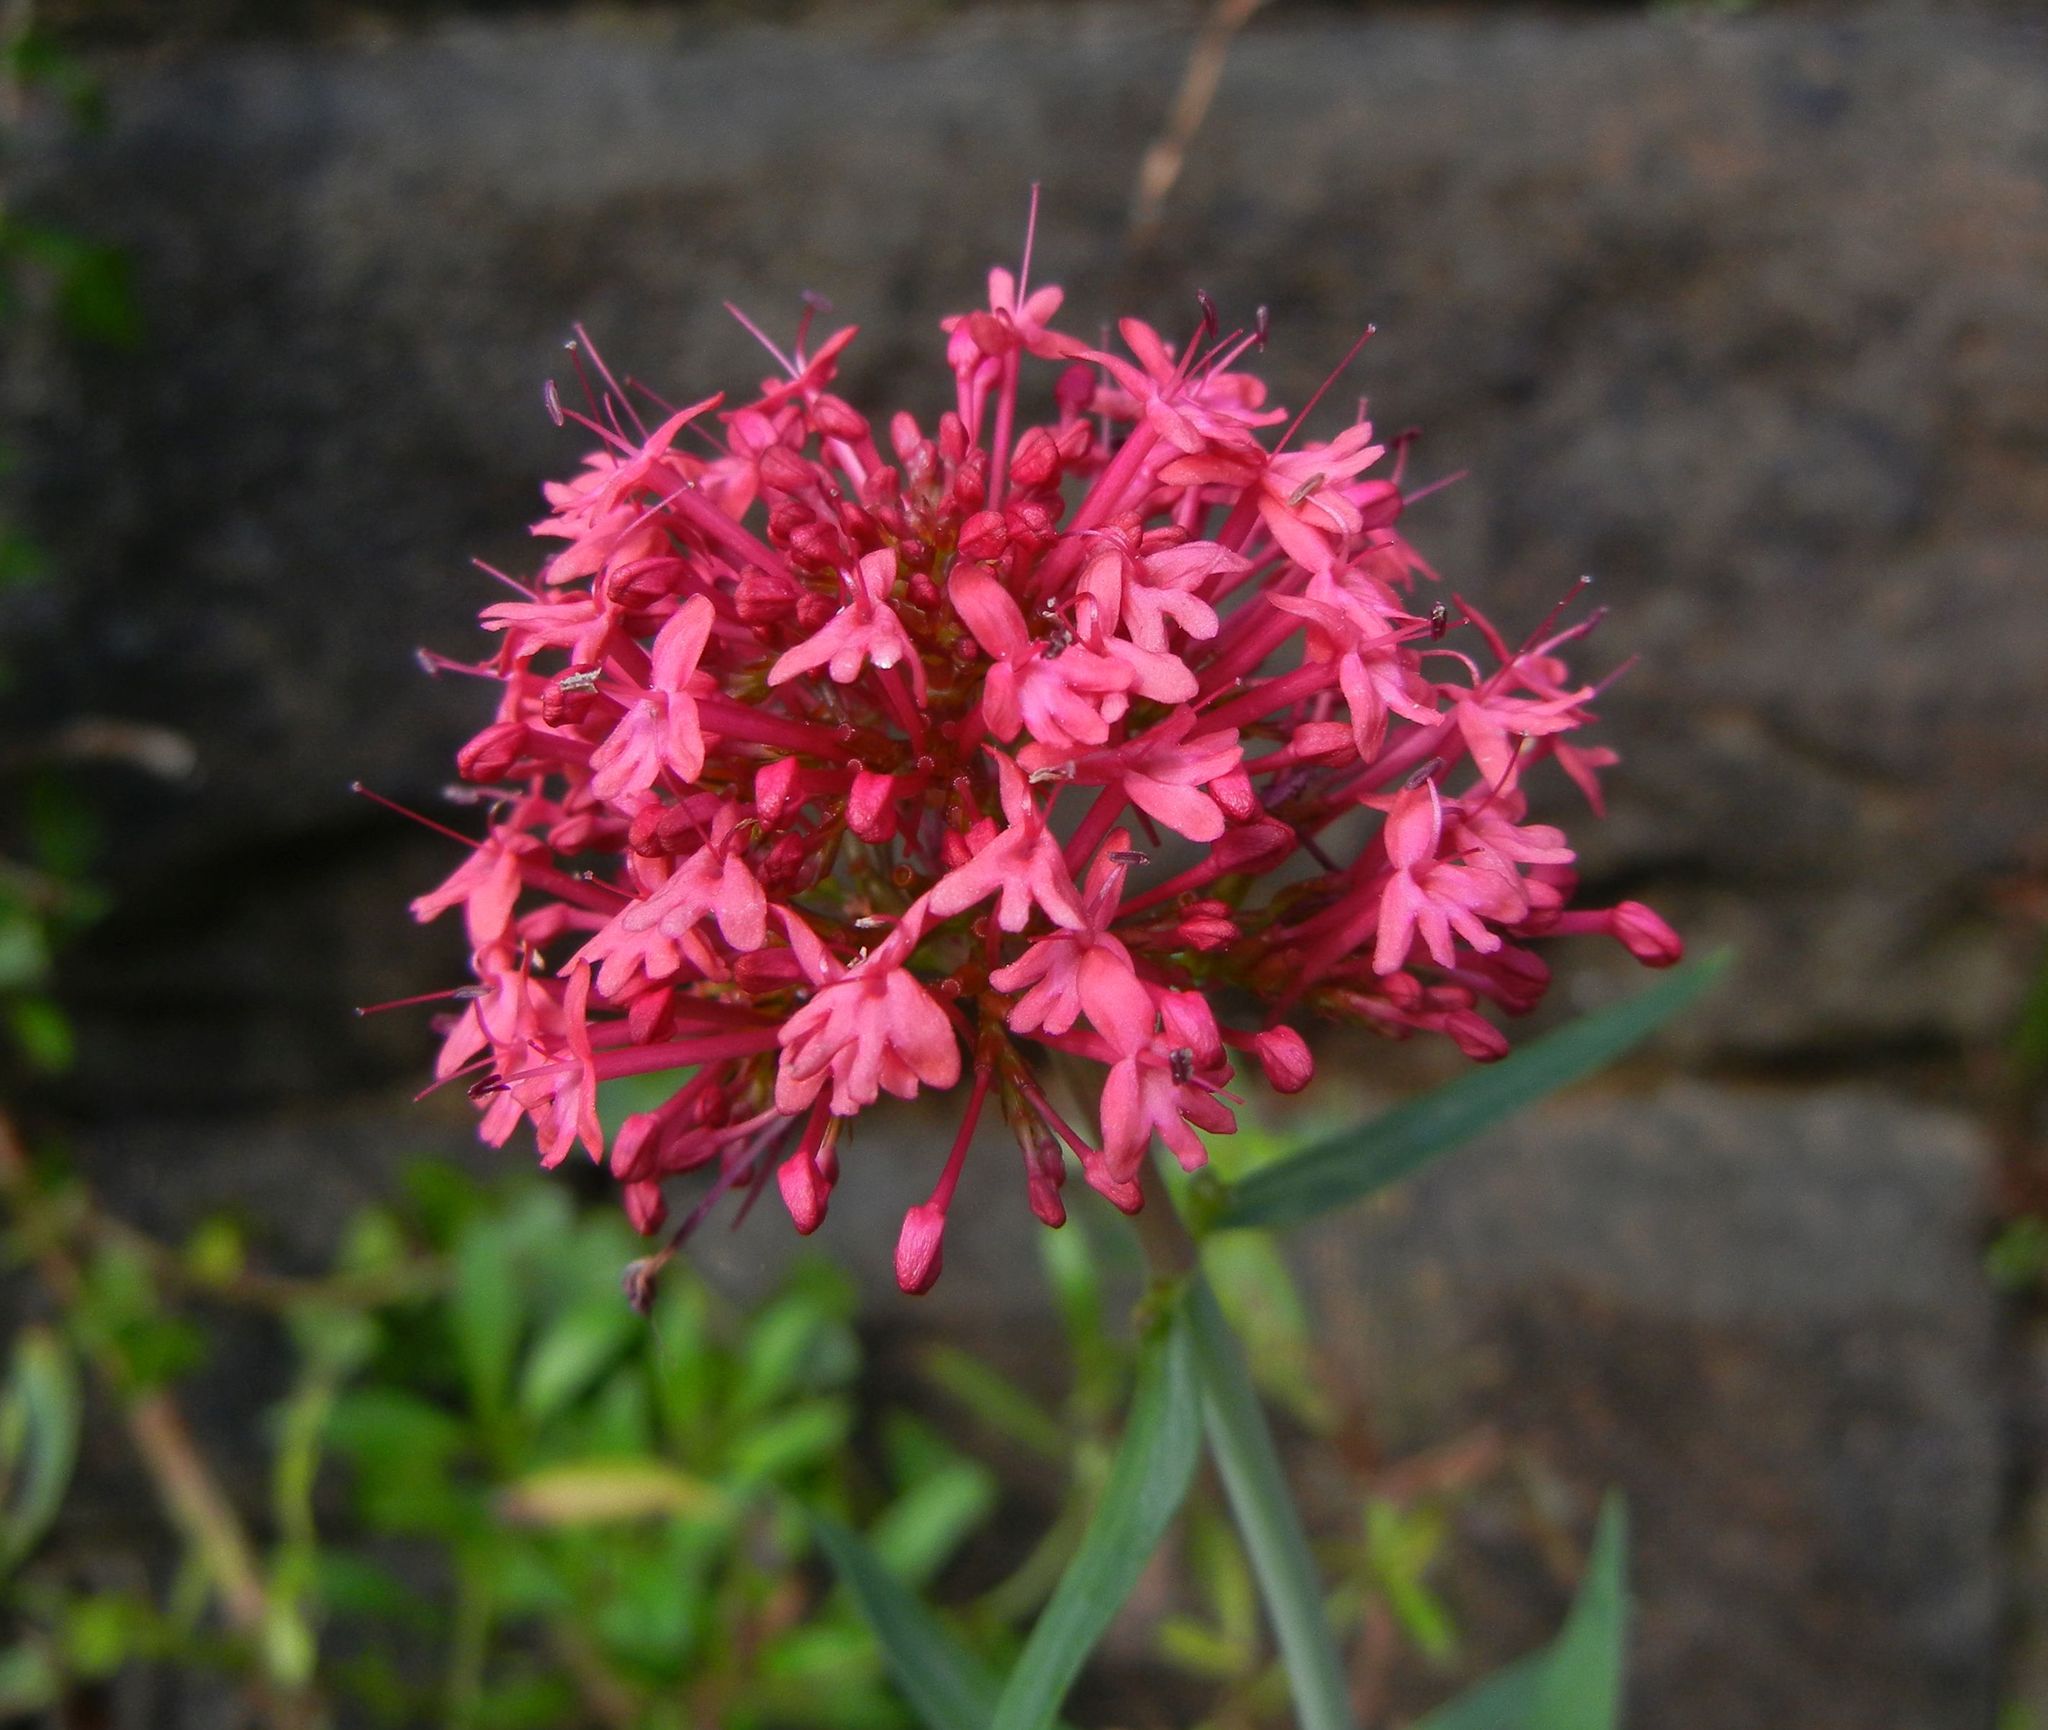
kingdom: Plantae
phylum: Tracheophyta
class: Magnoliopsida
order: Dipsacales
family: Caprifoliaceae
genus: Centranthus
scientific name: Centranthus ruber
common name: Red valerian
